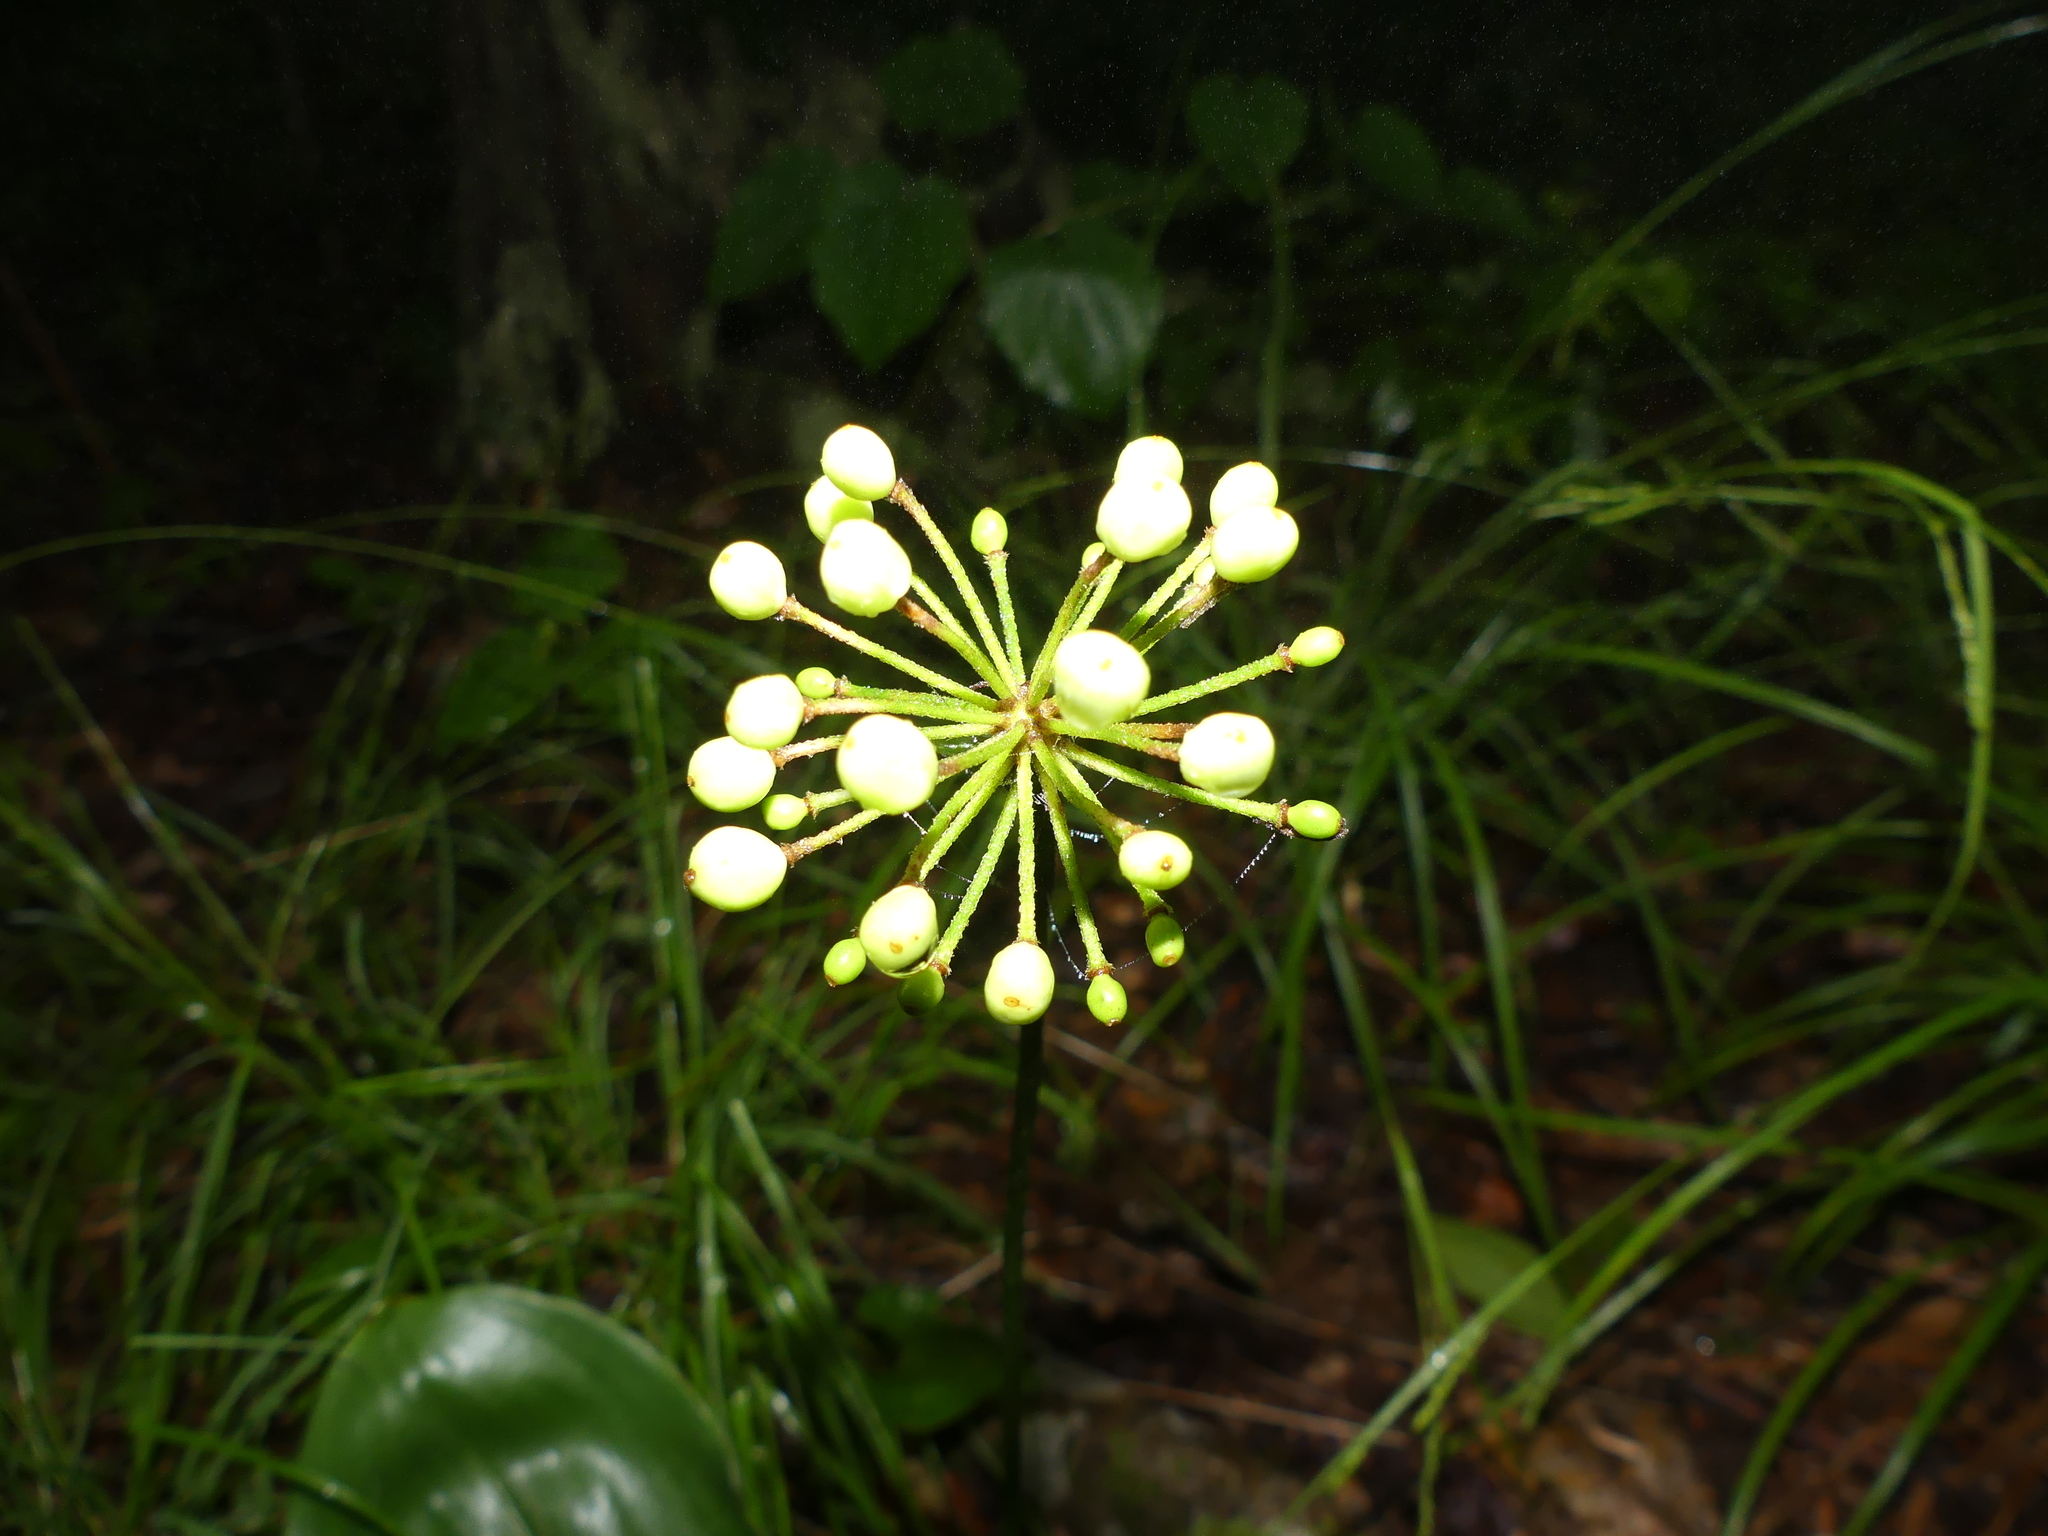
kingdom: Plantae
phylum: Tracheophyta
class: Liliopsida
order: Liliales
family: Liliaceae
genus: Clintonia
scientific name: Clintonia umbellulata
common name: Speckle wood-lily
